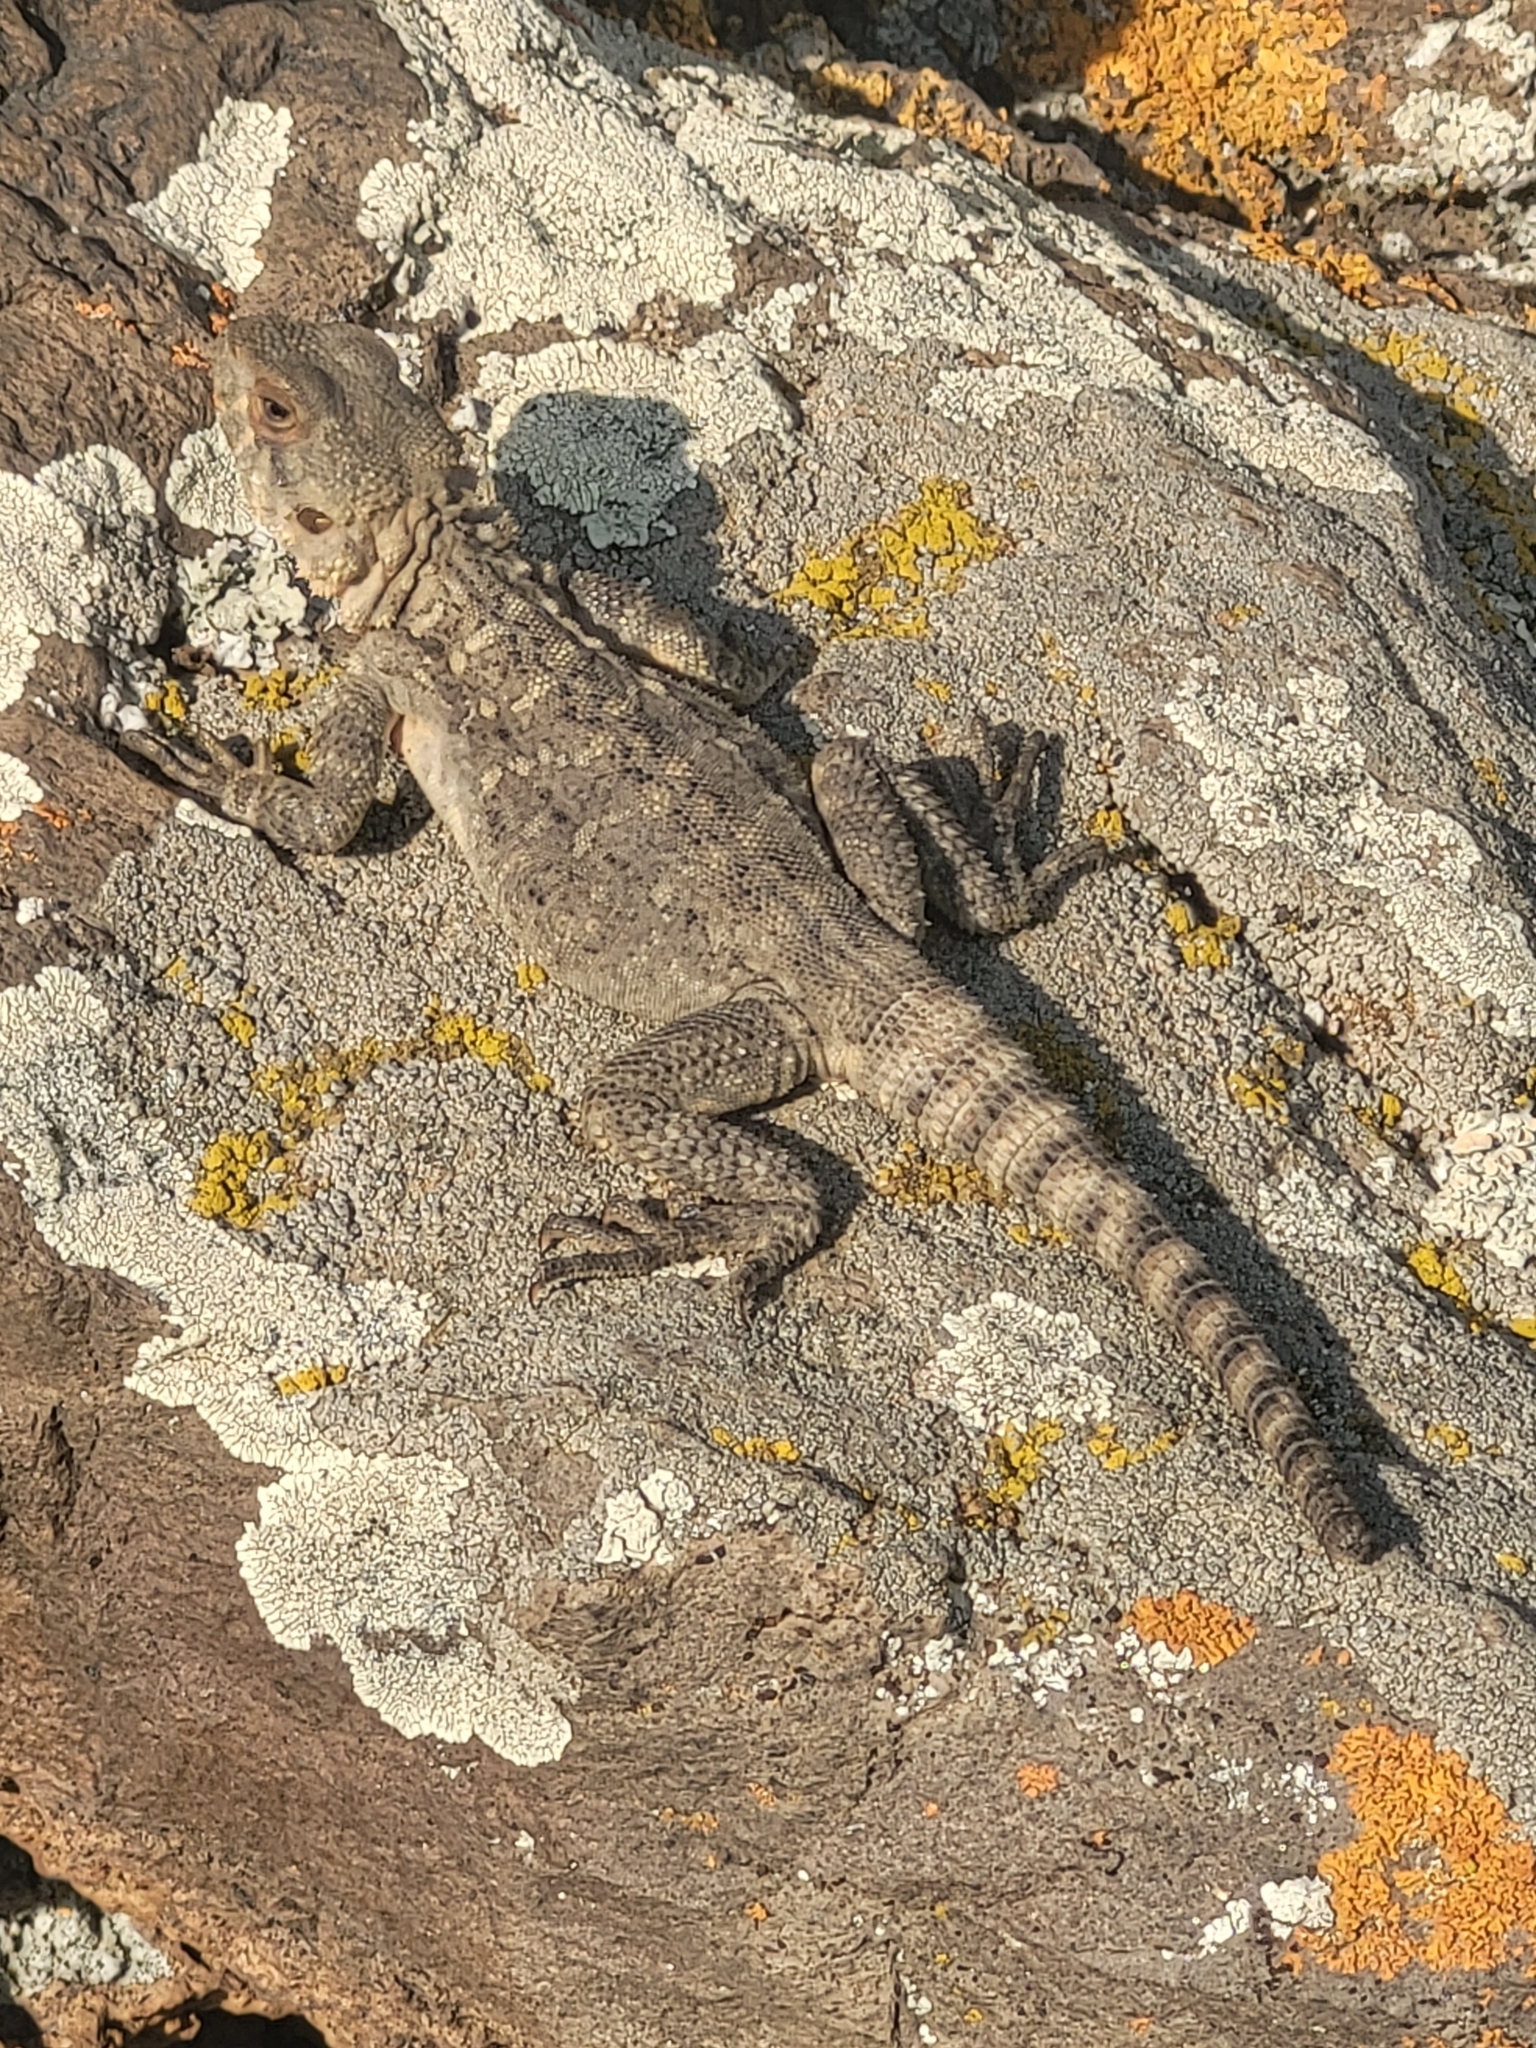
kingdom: Animalia
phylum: Chordata
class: Squamata
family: Agamidae
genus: Paralaudakia
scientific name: Paralaudakia caucasia
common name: Caucasian agama
